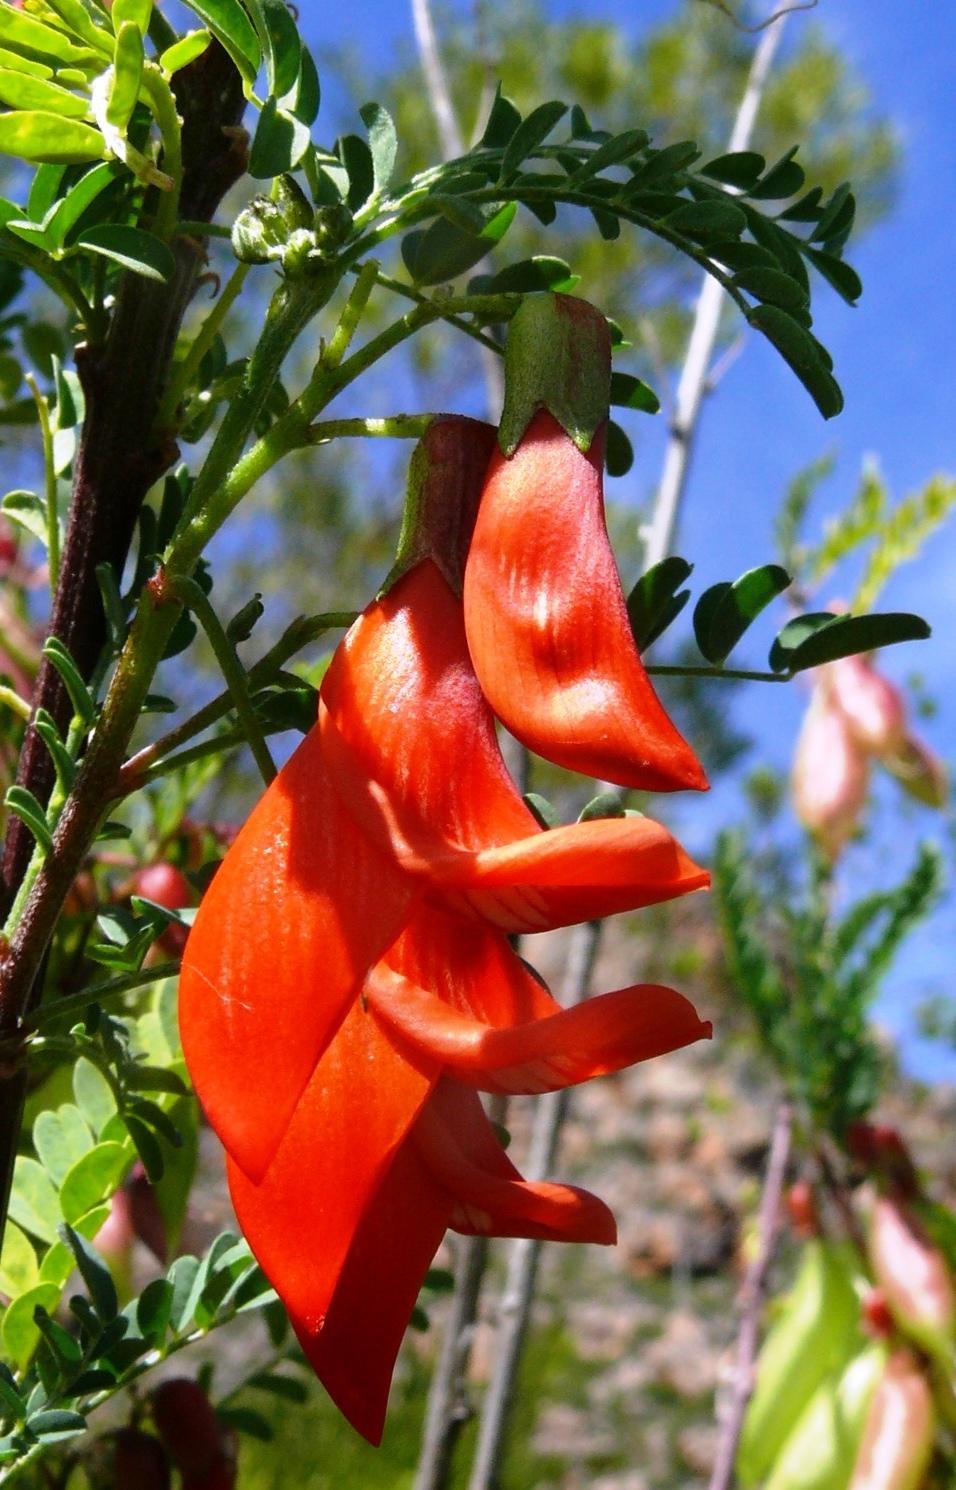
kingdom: Plantae
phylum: Tracheophyta
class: Magnoliopsida
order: Fabales
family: Fabaceae
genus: Lessertia
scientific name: Lessertia frutescens
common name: Balloon-pea
